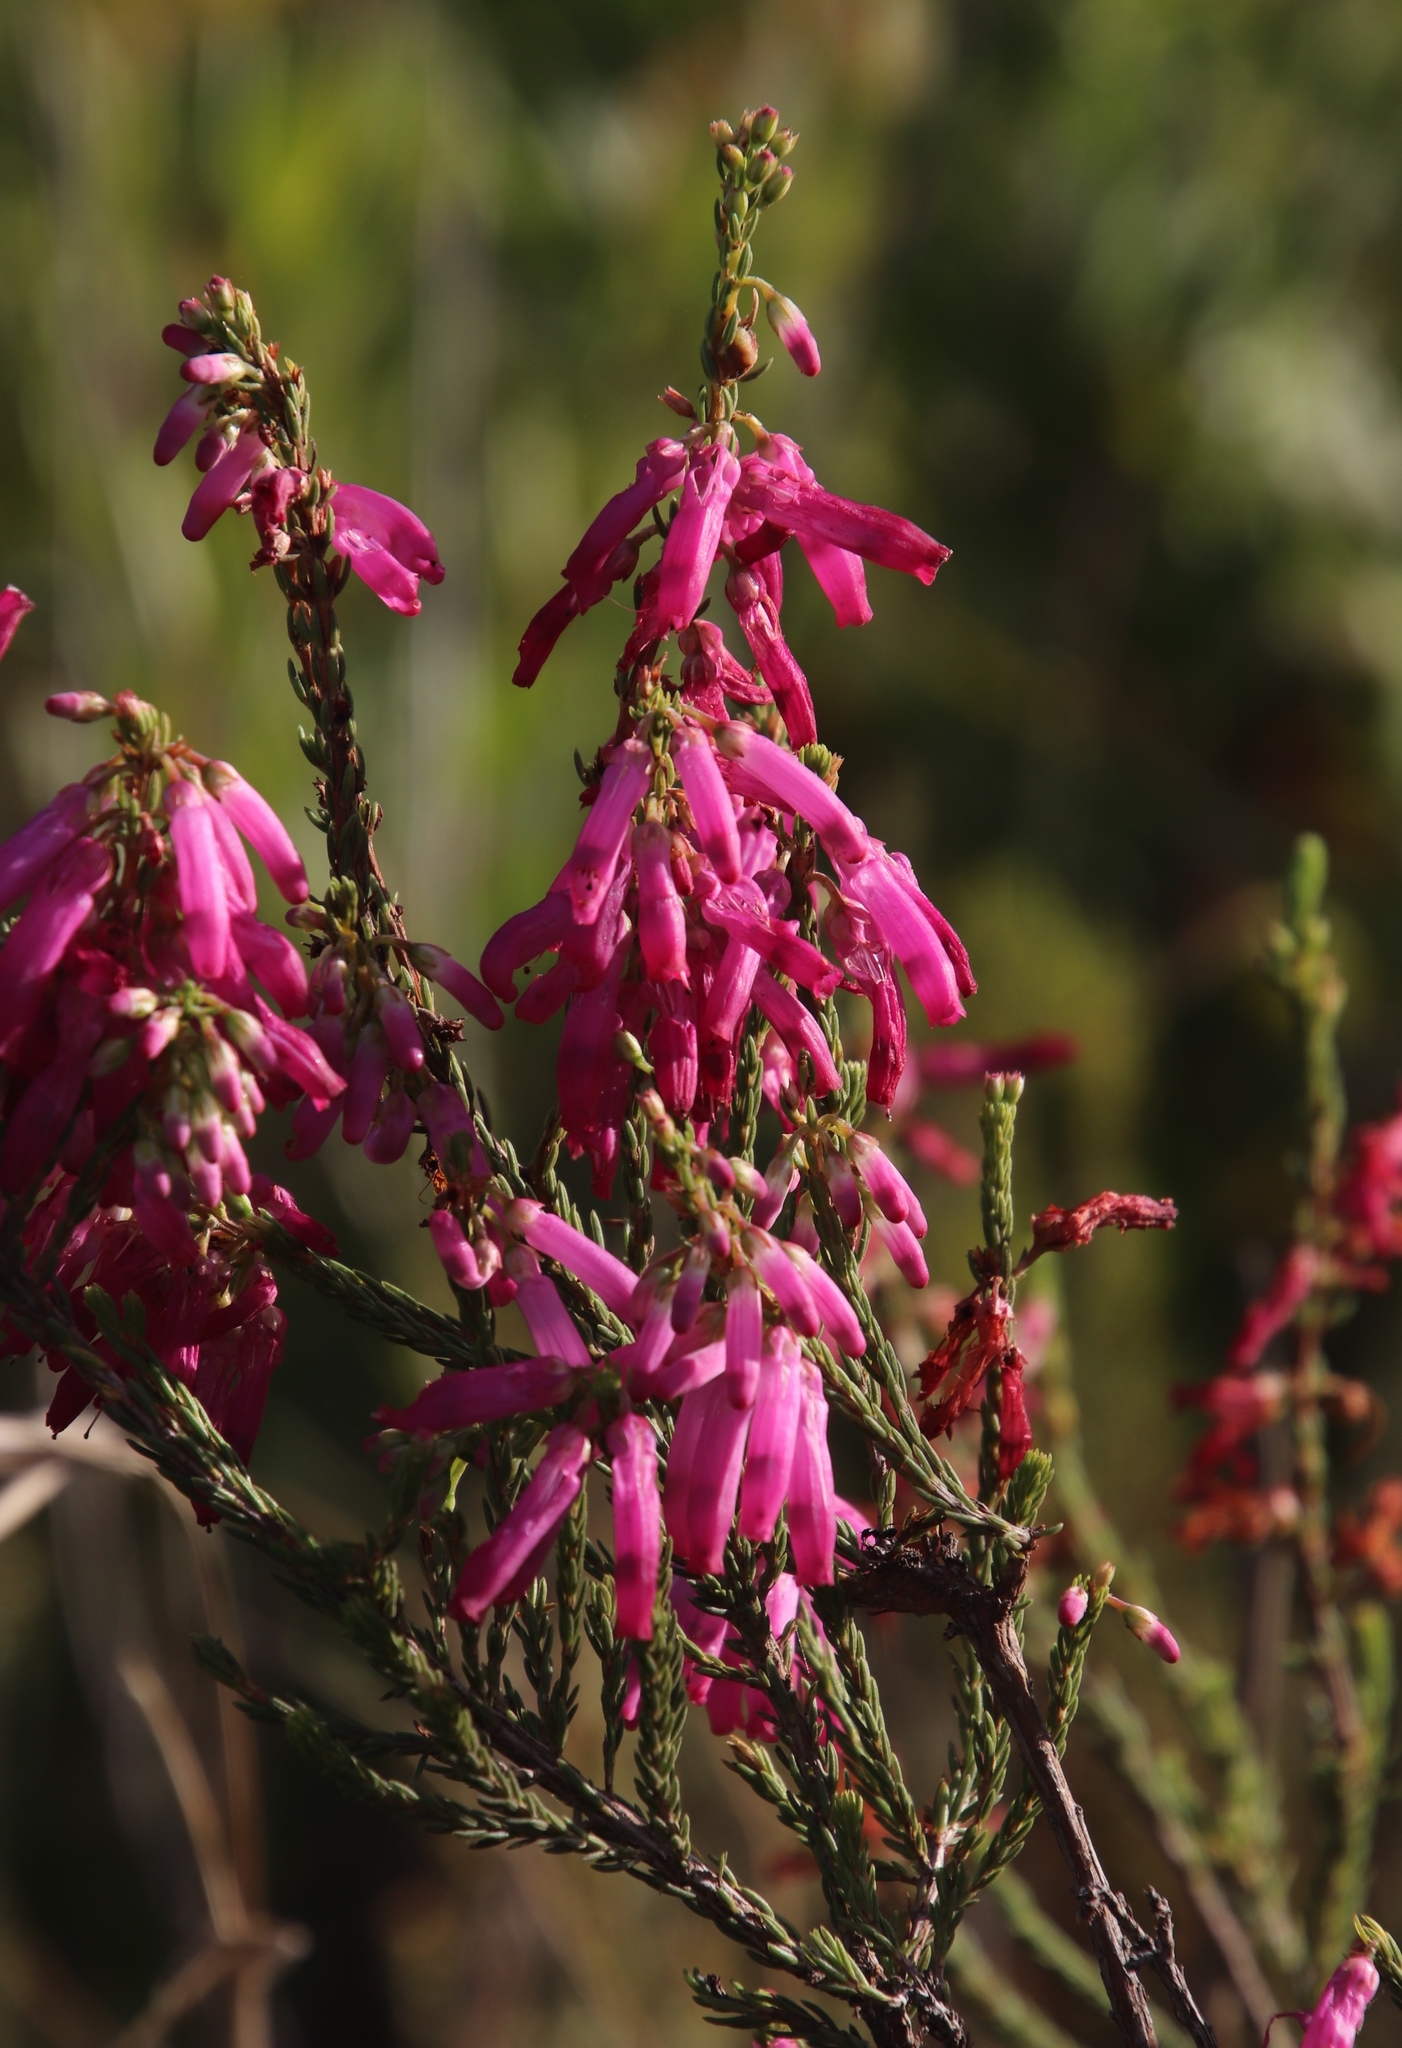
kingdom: Plantae
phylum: Tracheophyta
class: Magnoliopsida
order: Ericales
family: Ericaceae
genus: Erica
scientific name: Erica mammosa
